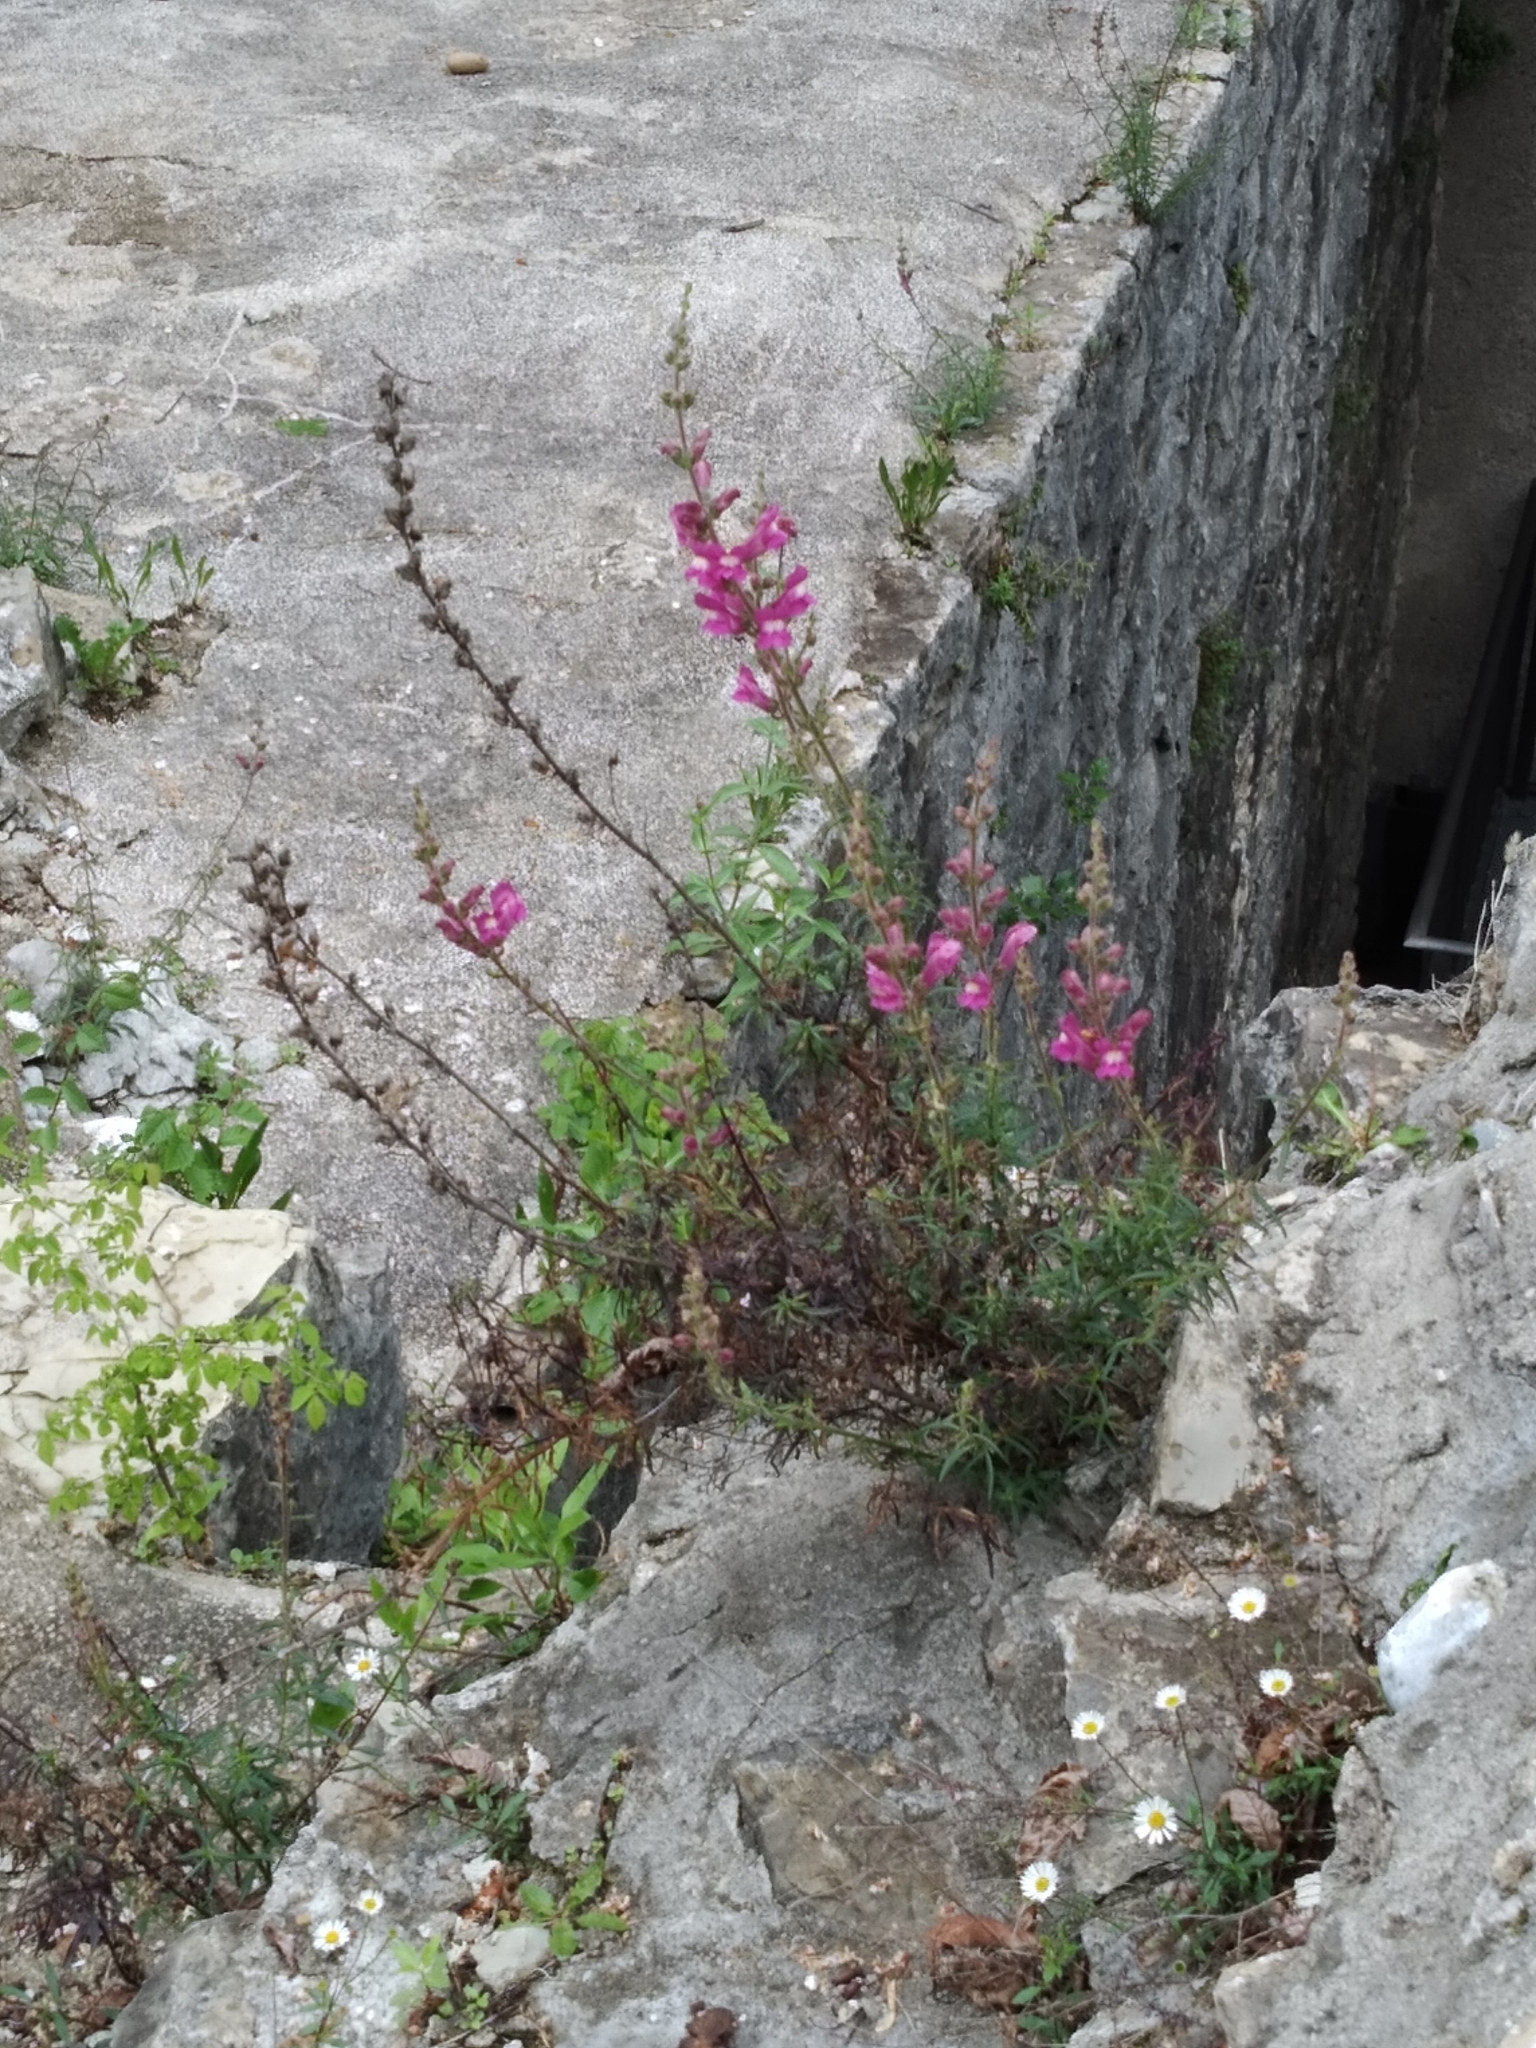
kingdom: Plantae
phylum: Tracheophyta
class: Magnoliopsida
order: Lamiales
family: Plantaginaceae
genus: Antirrhinum
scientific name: Antirrhinum tortuosum
